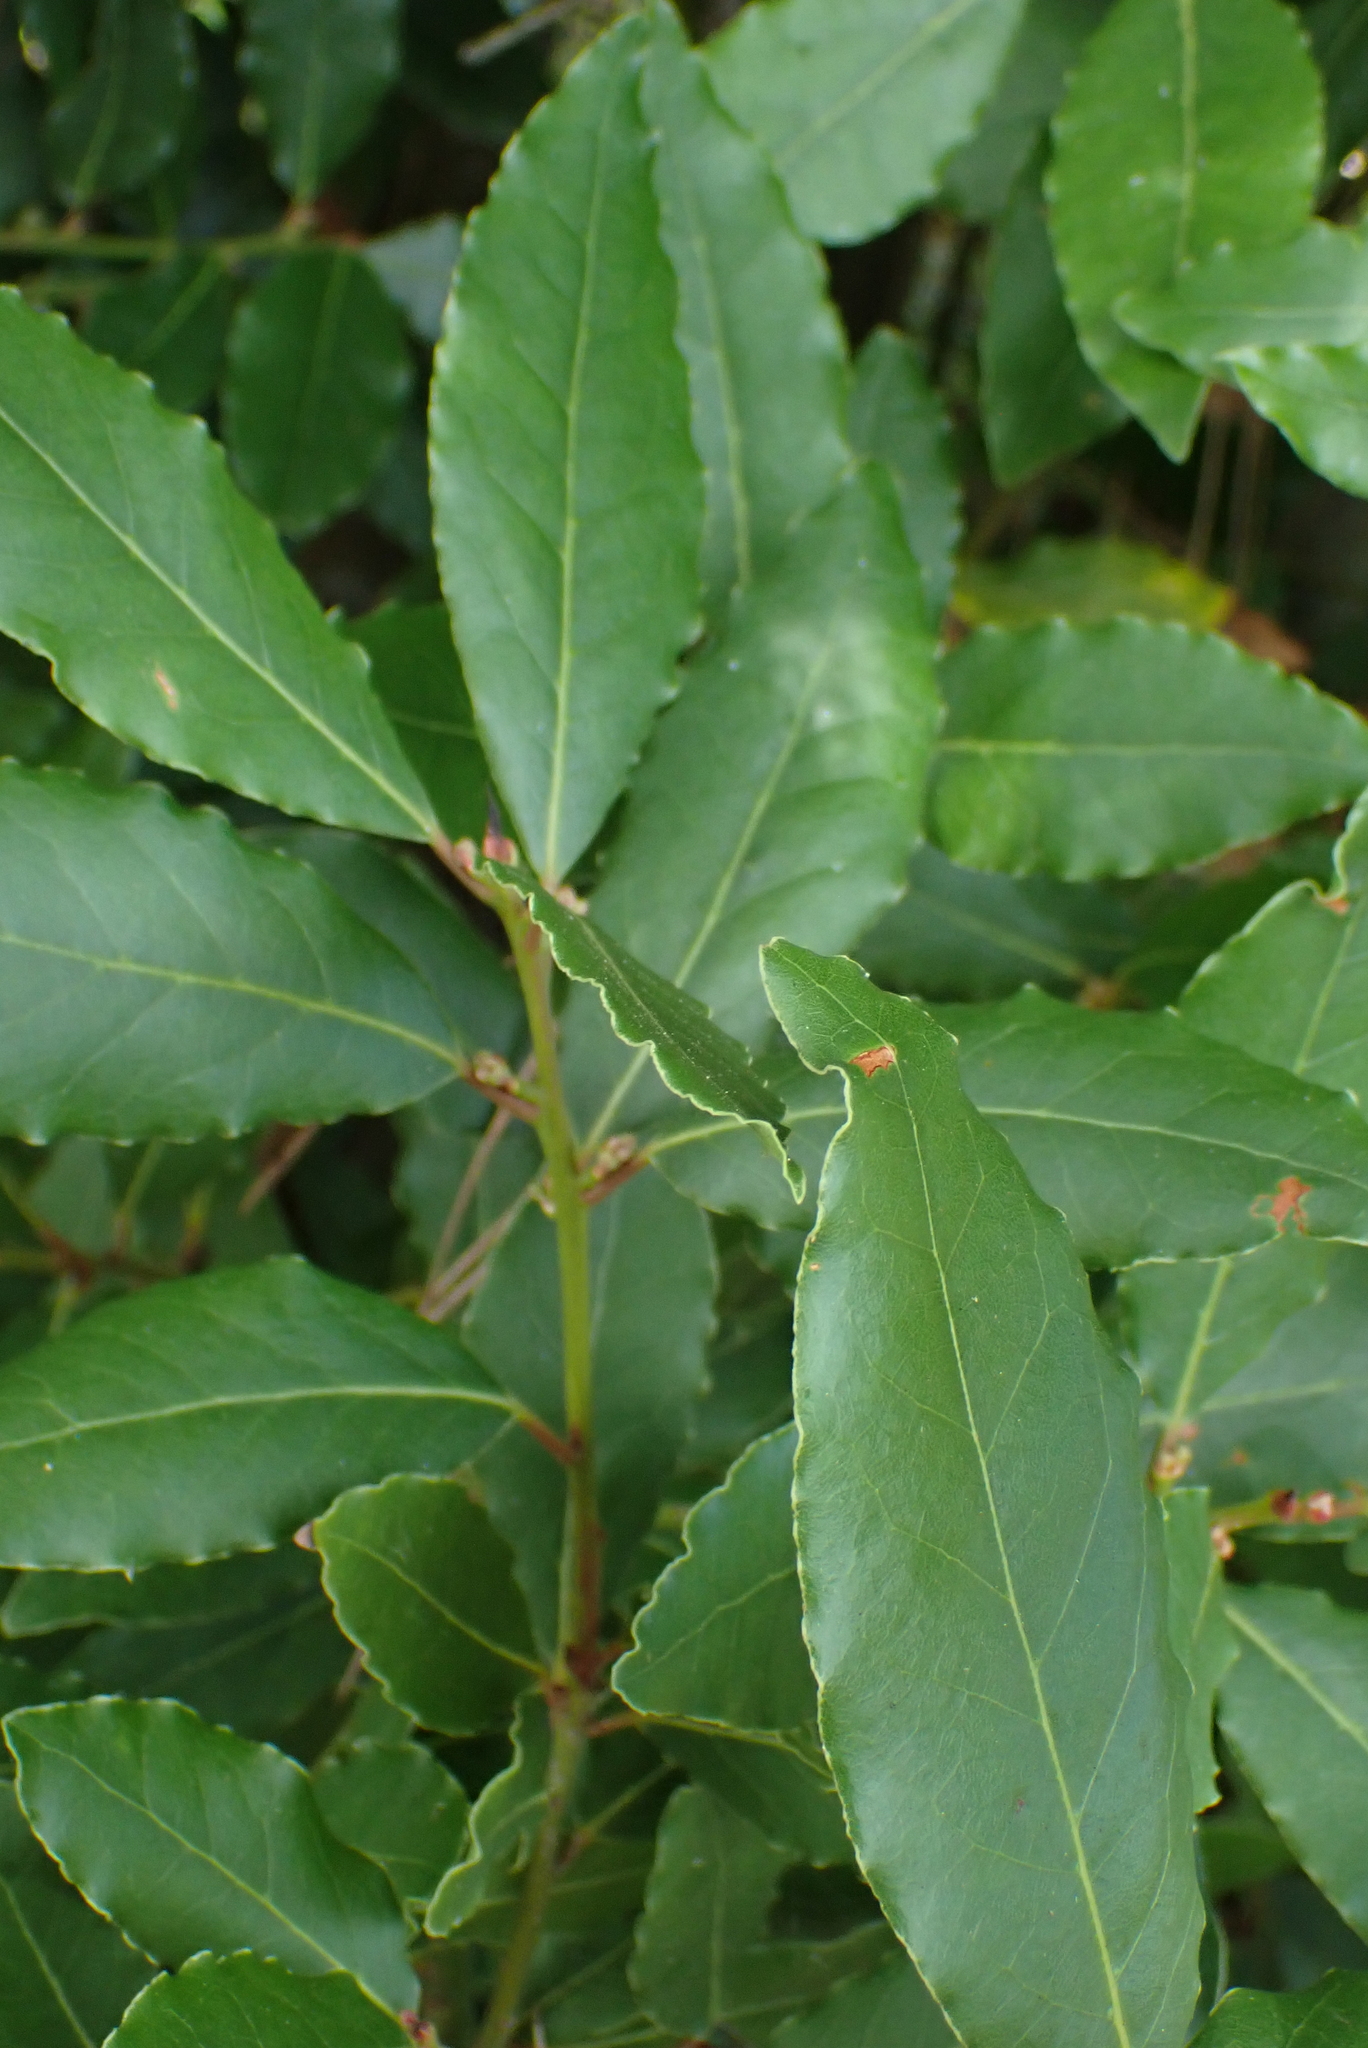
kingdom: Plantae
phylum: Tracheophyta
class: Magnoliopsida
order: Laurales
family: Lauraceae
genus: Laurus
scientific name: Laurus nobilis
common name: Bay
